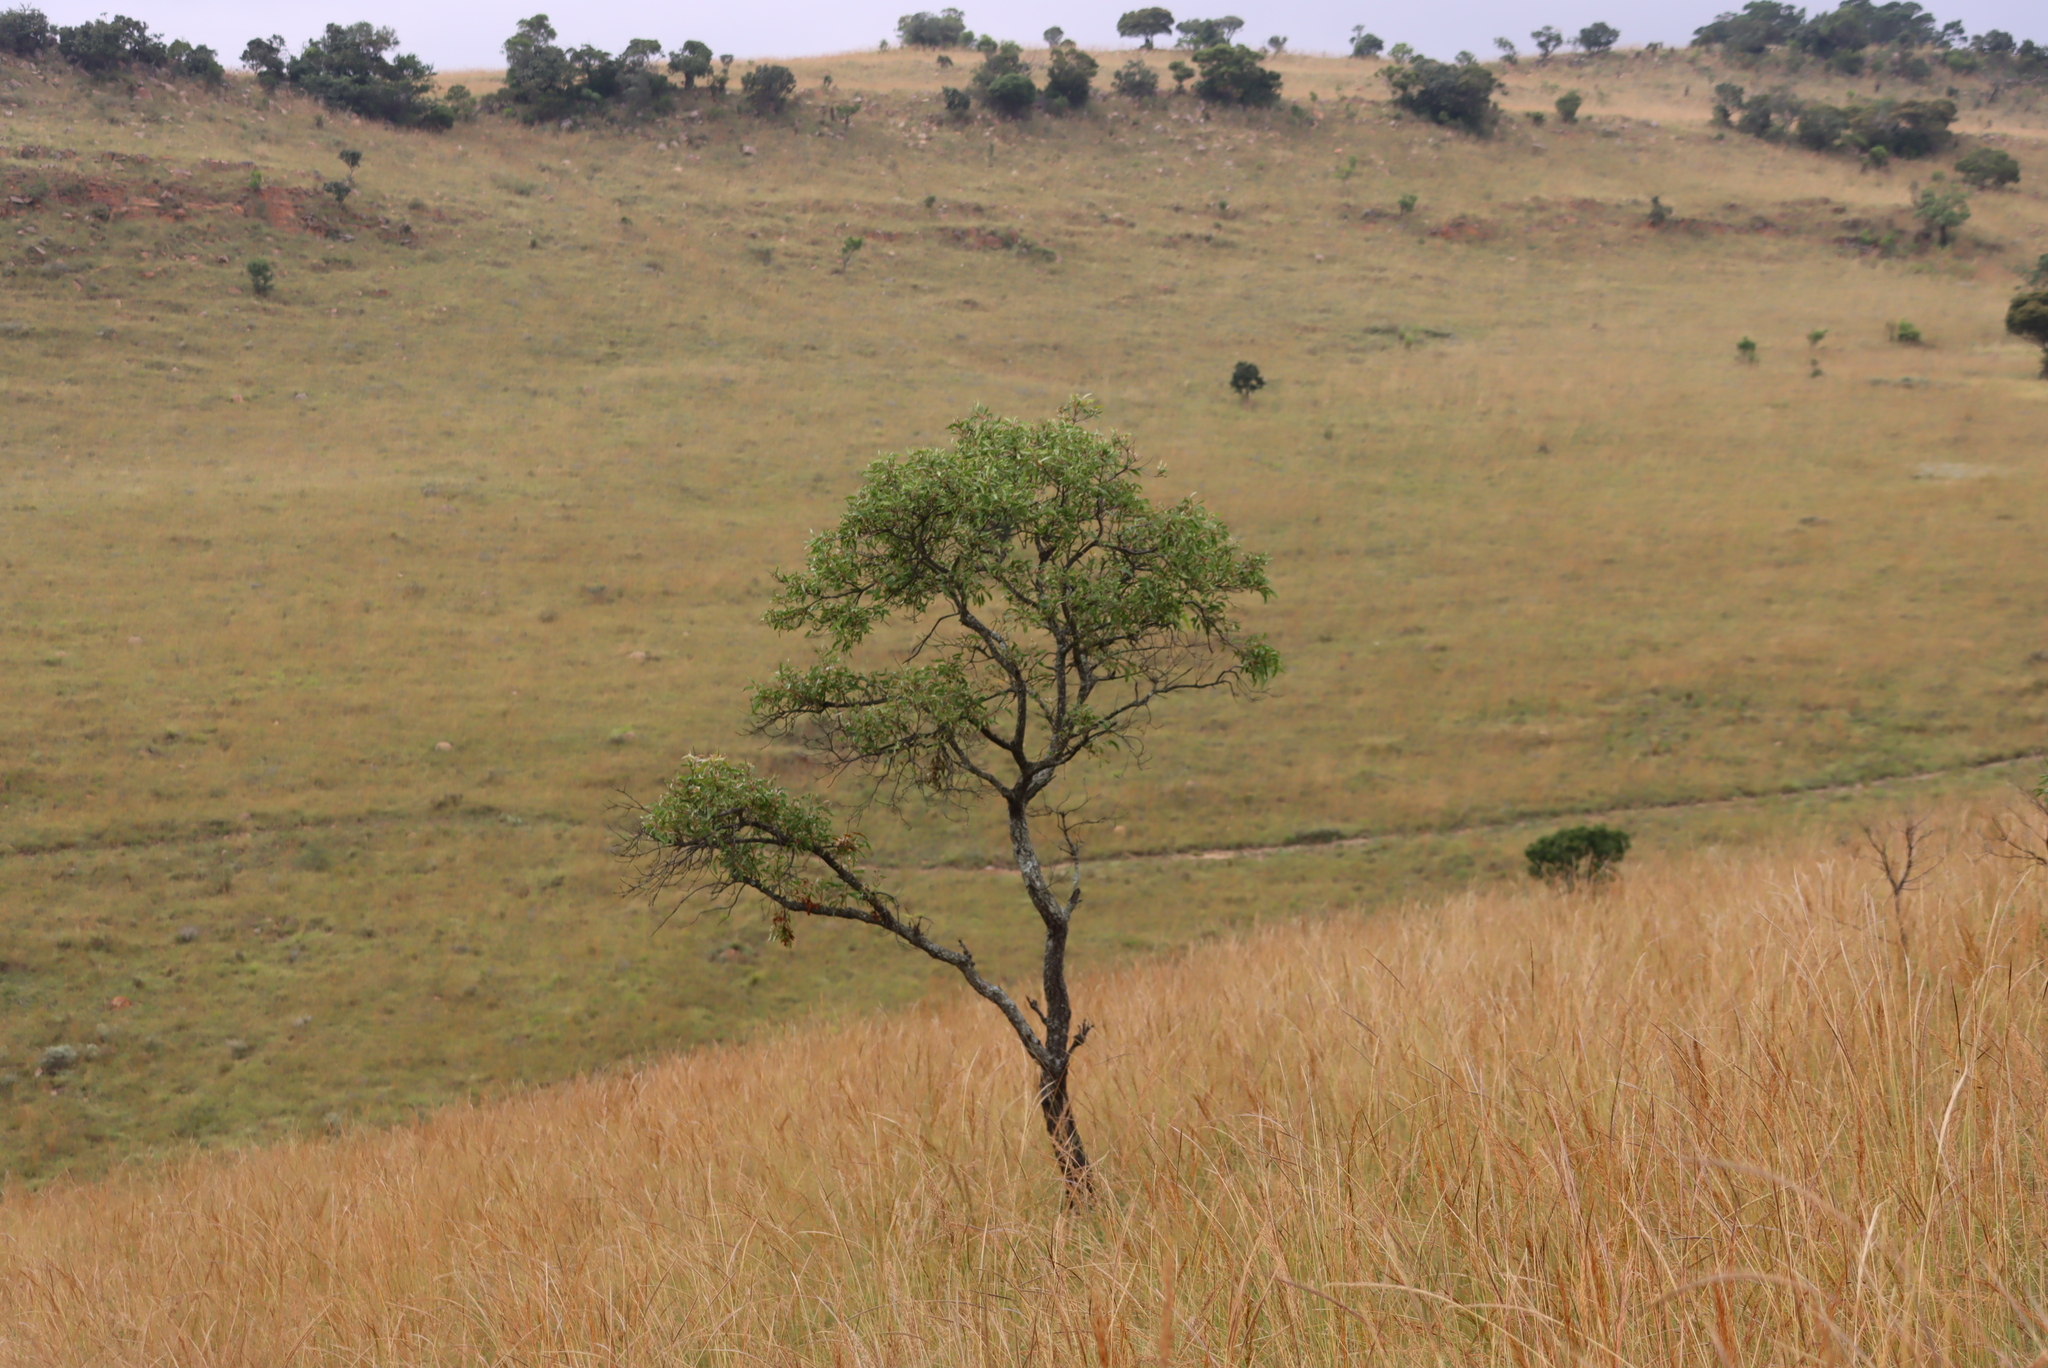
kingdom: Plantae
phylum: Tracheophyta
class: Magnoliopsida
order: Proteales
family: Proteaceae
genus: Faurea
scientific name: Faurea saligna
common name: African bean
